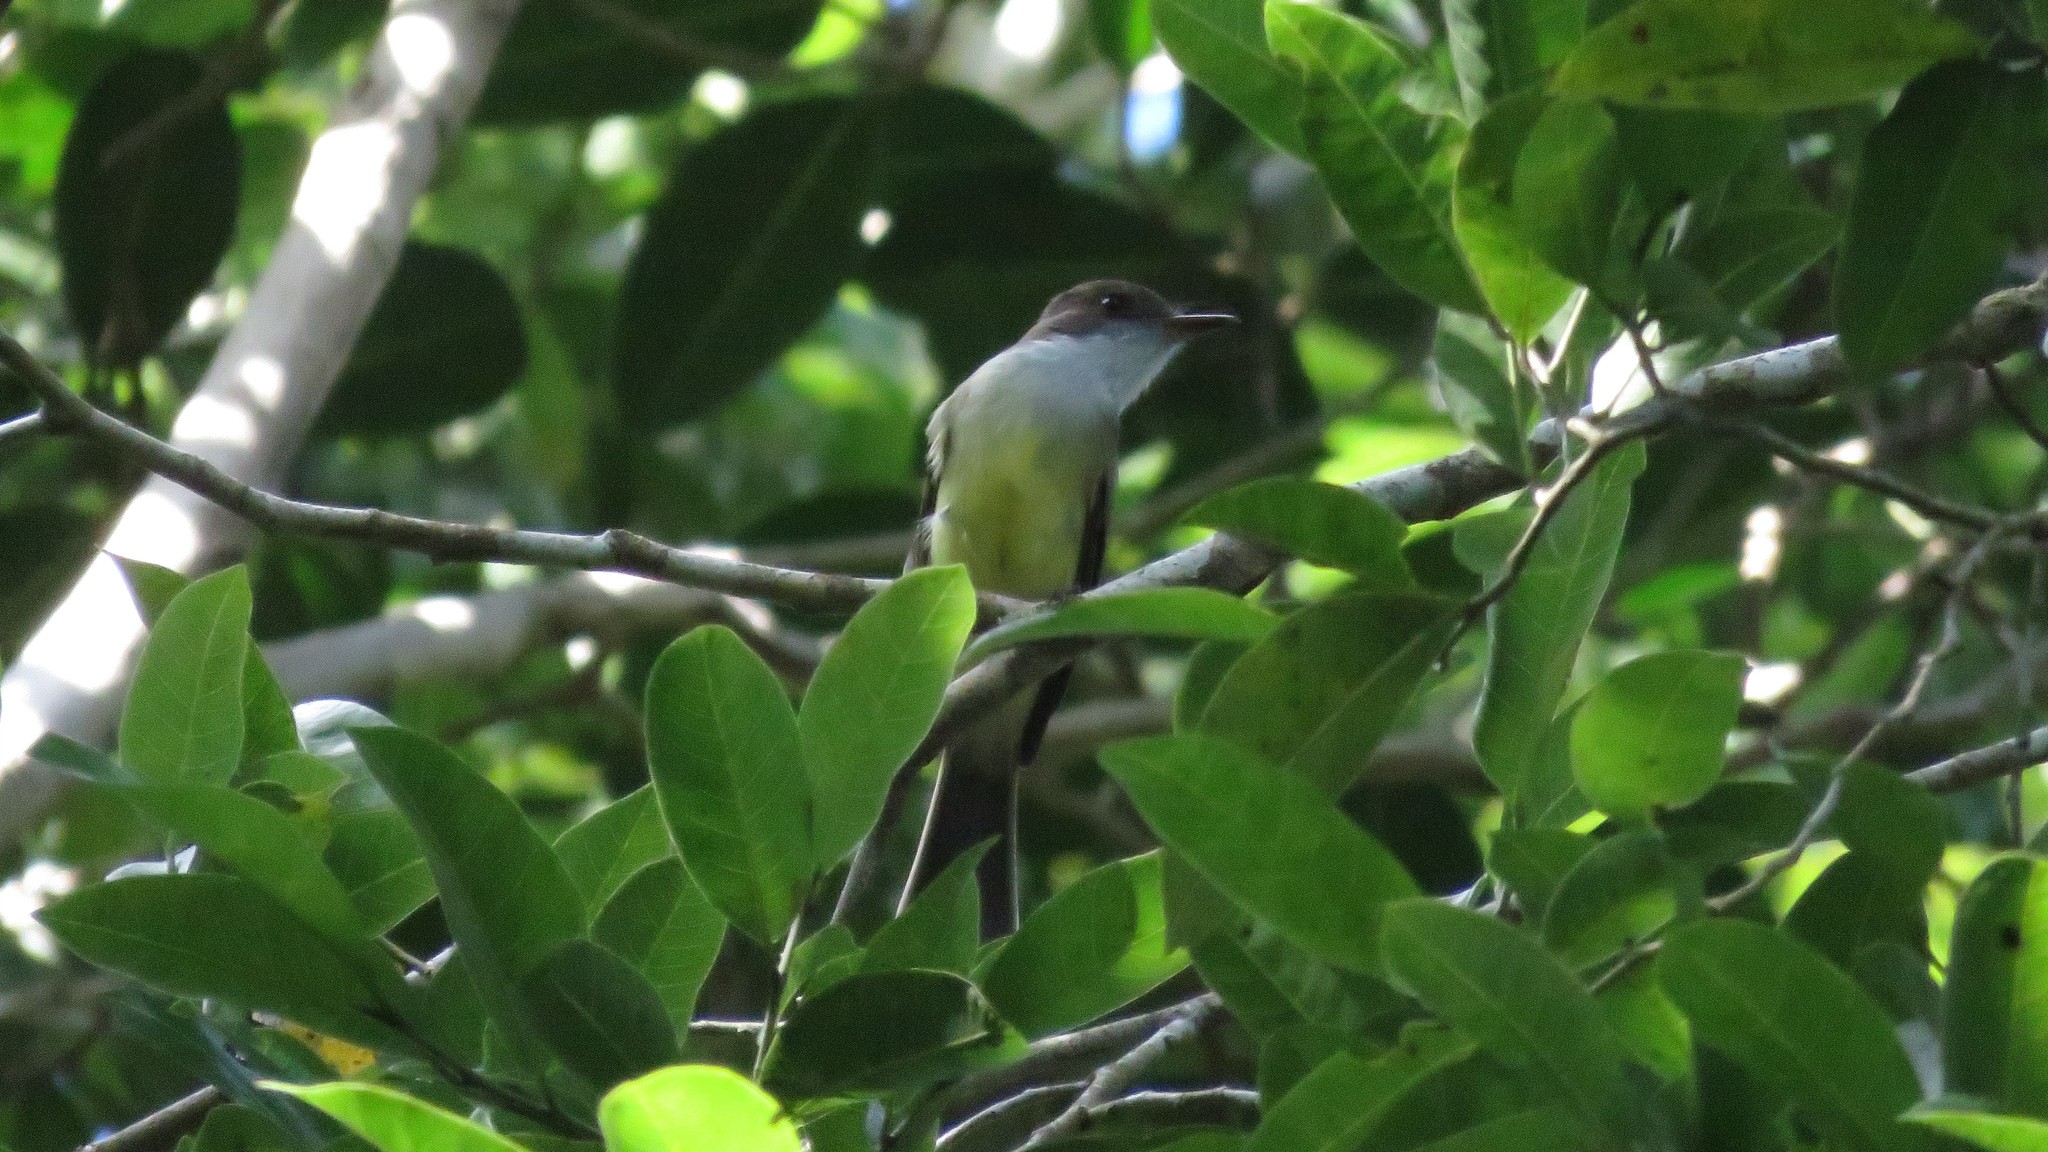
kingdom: Animalia
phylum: Chordata
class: Aves
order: Passeriformes
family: Tyrannidae
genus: Myiarchus
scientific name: Myiarchus tuberculifer
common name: Dusky-capped flycatcher
